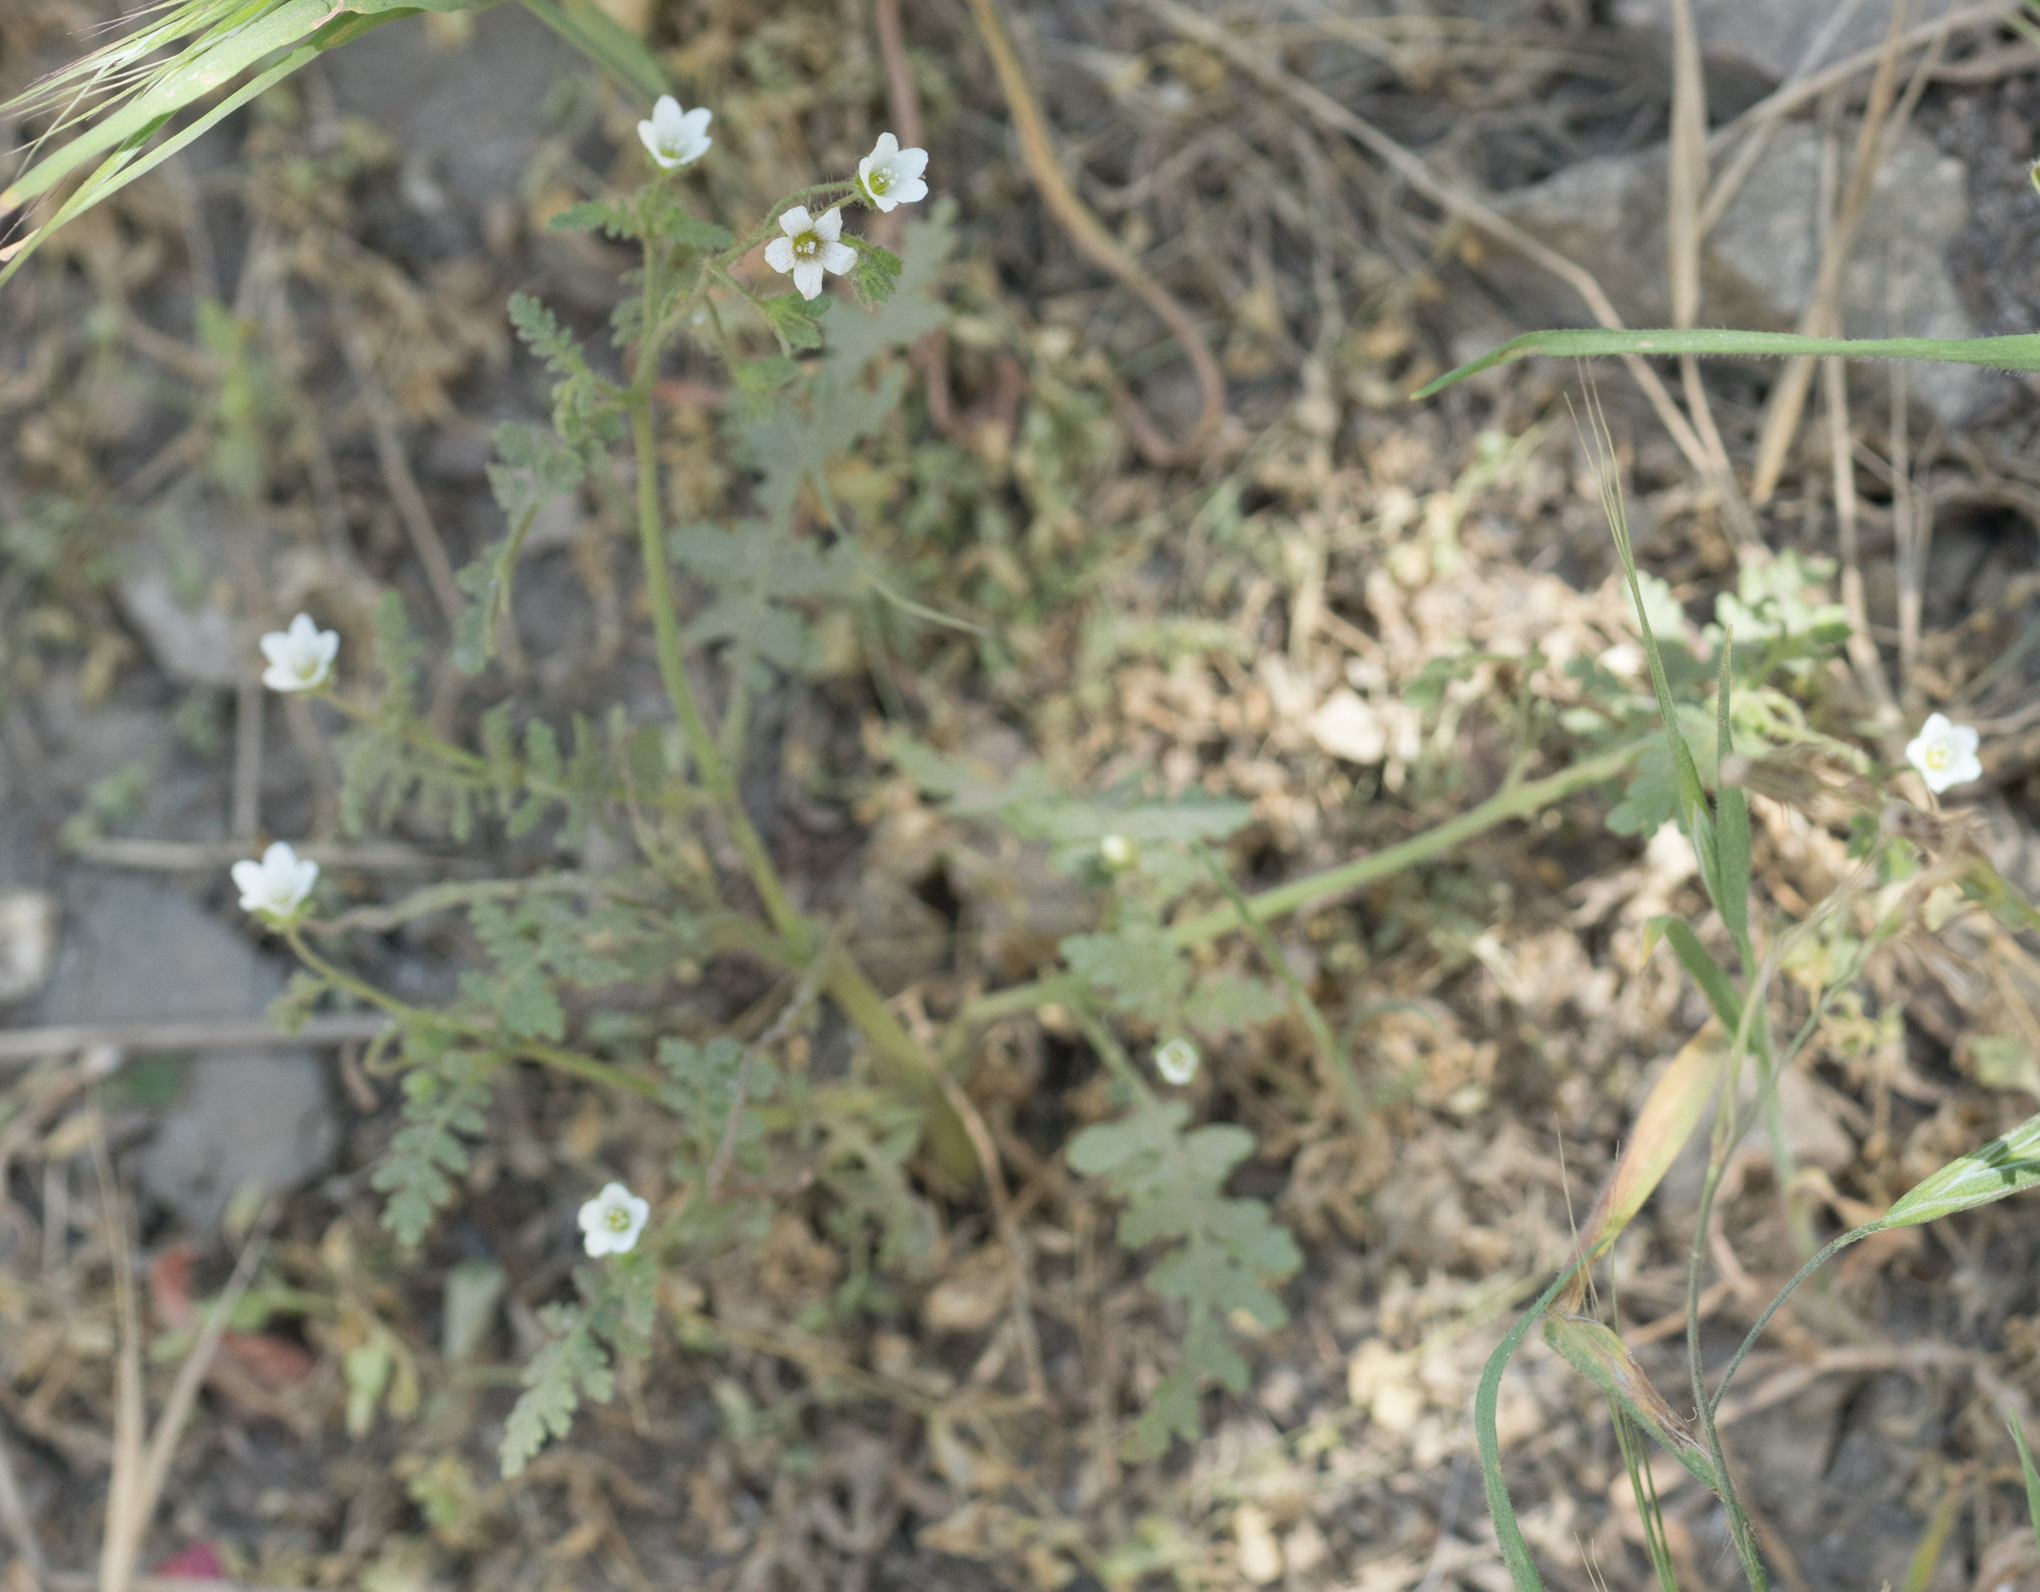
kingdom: Plantae
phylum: Tracheophyta
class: Magnoliopsida
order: Boraginales
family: Hydrophyllaceae
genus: Eucrypta
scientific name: Eucrypta chrysanthemifolia
